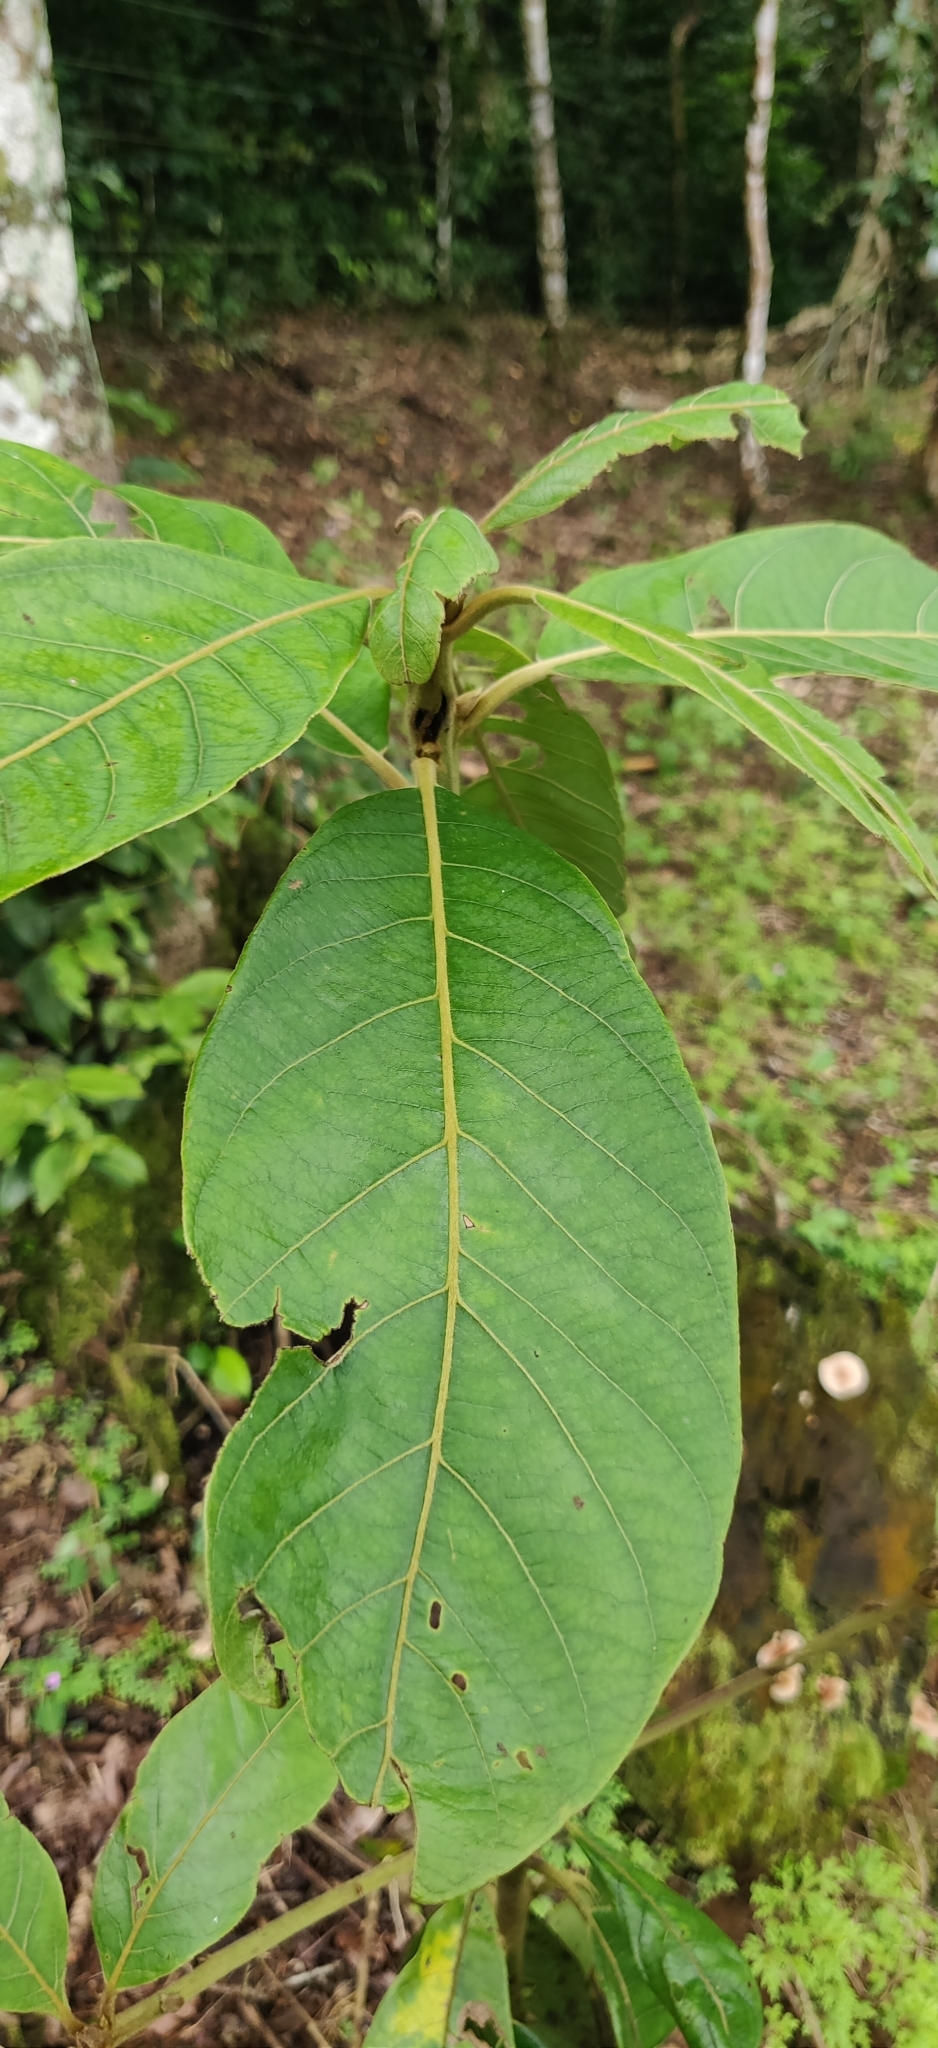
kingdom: Plantae
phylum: Tracheophyta
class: Magnoliopsida
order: Laurales
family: Lauraceae
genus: Litsea
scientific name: Litsea ghatica
